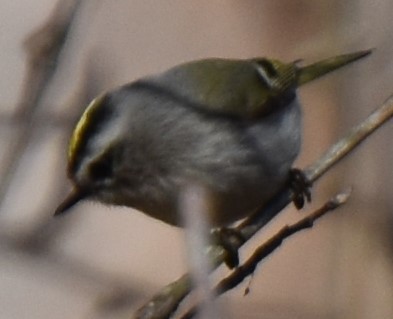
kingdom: Animalia
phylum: Chordata
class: Aves
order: Passeriformes
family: Regulidae
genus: Regulus
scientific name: Regulus satrapa
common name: Golden-crowned kinglet
